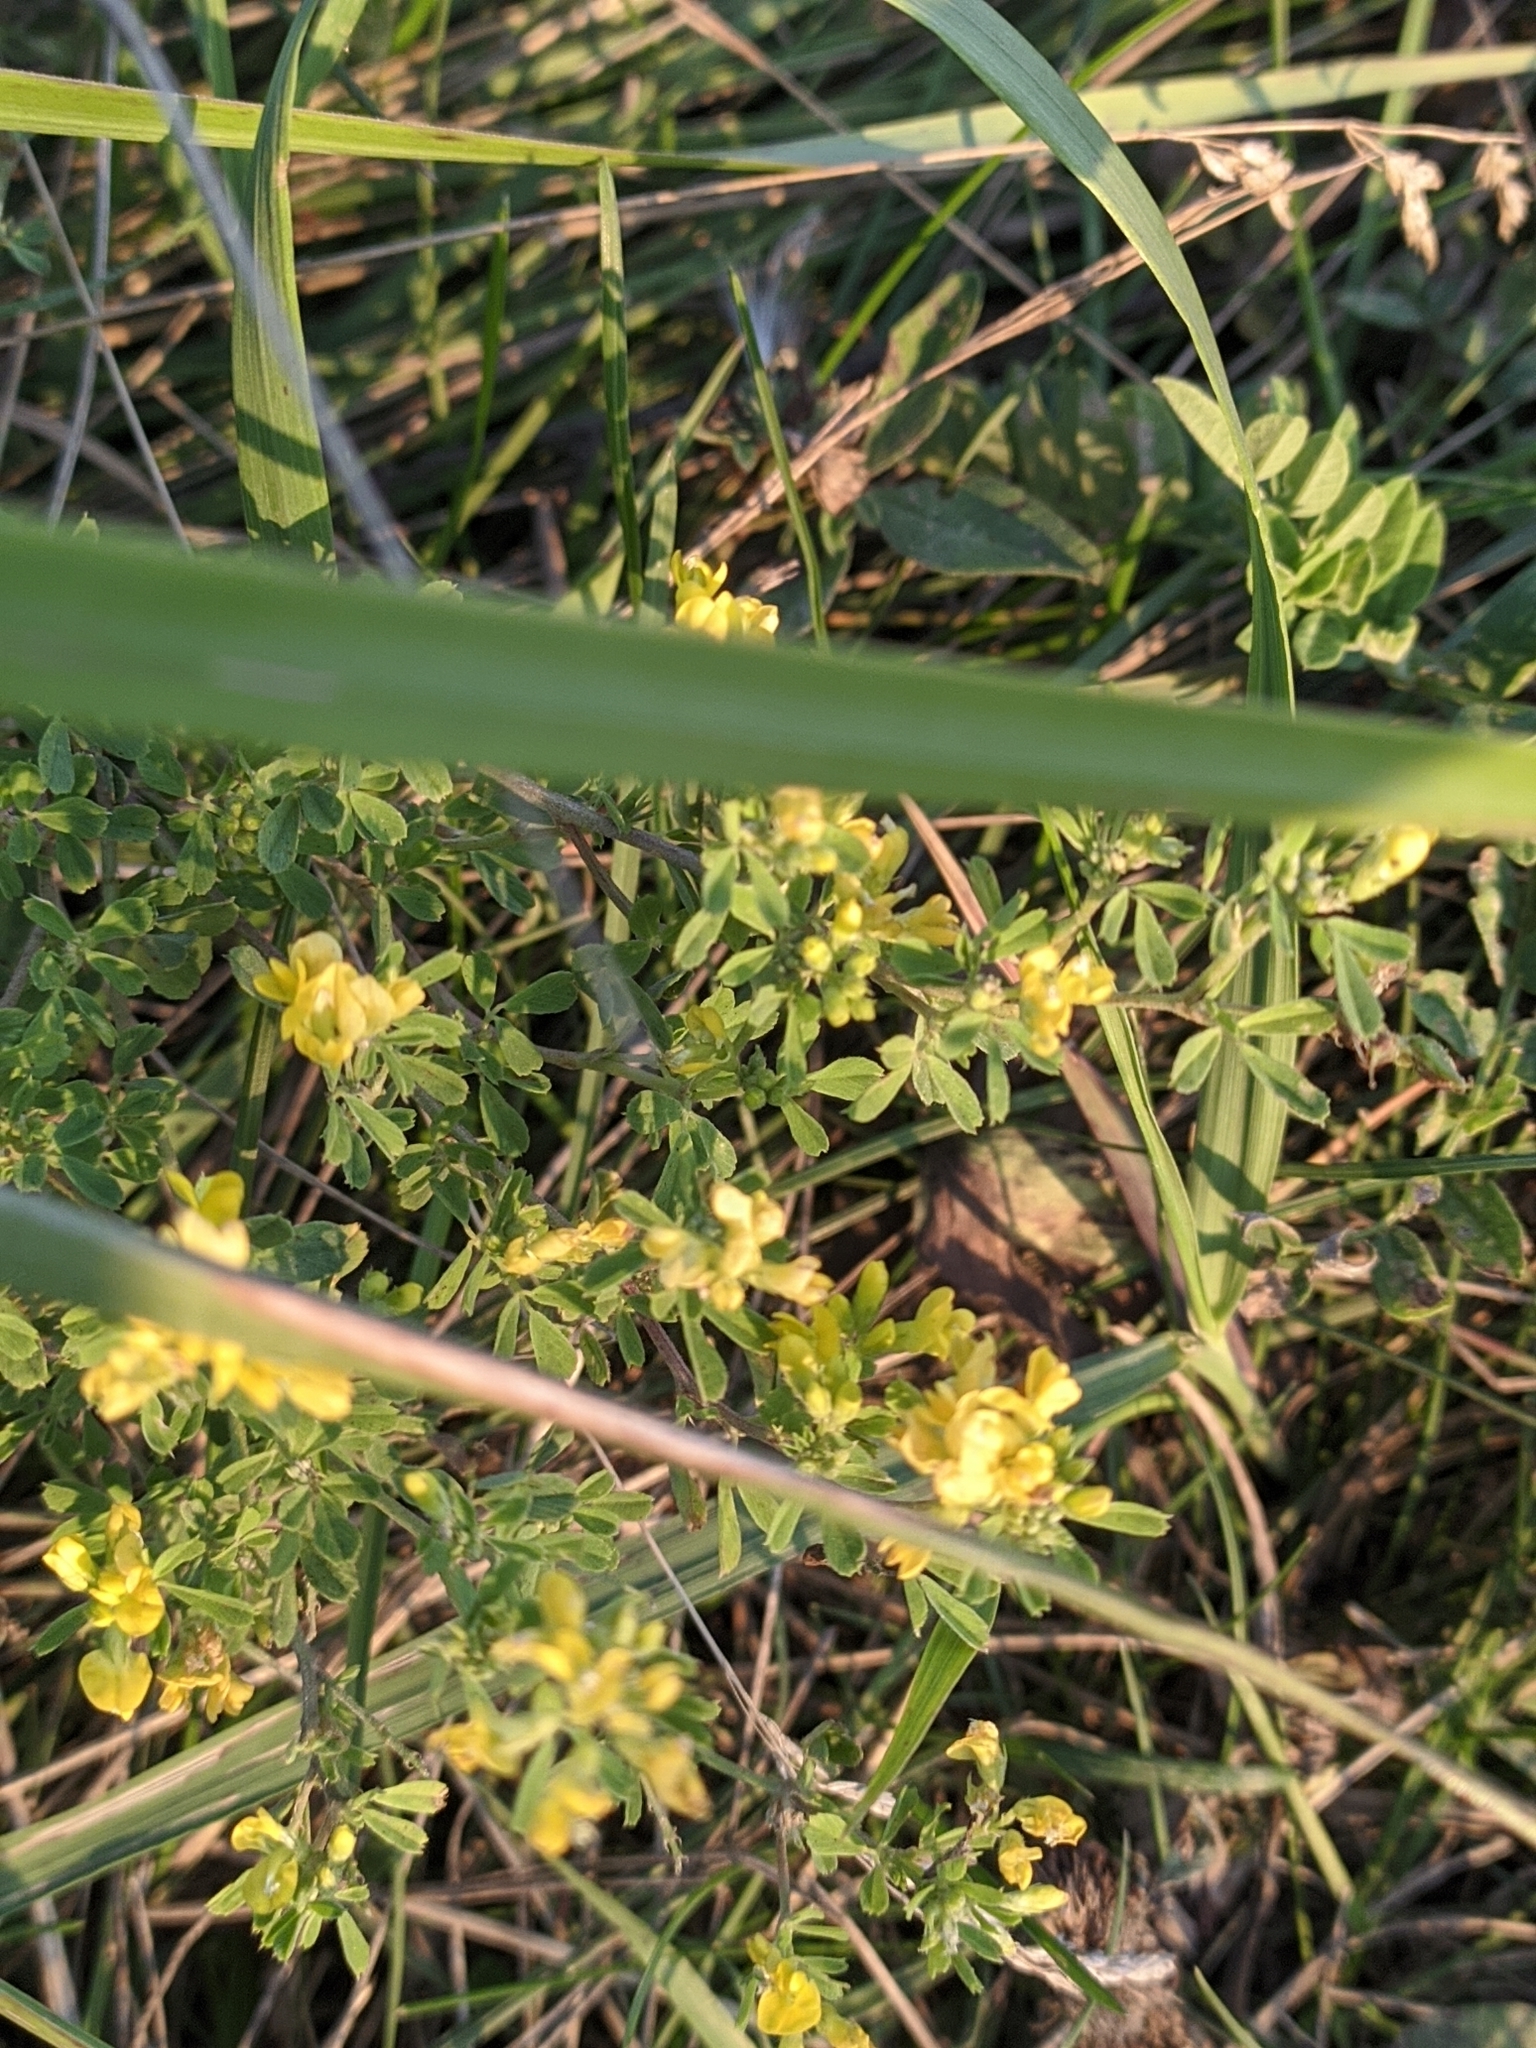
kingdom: Plantae
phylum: Tracheophyta
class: Magnoliopsida
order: Fabales
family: Fabaceae
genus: Medicago
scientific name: Medicago falcata
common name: Sickle medick
